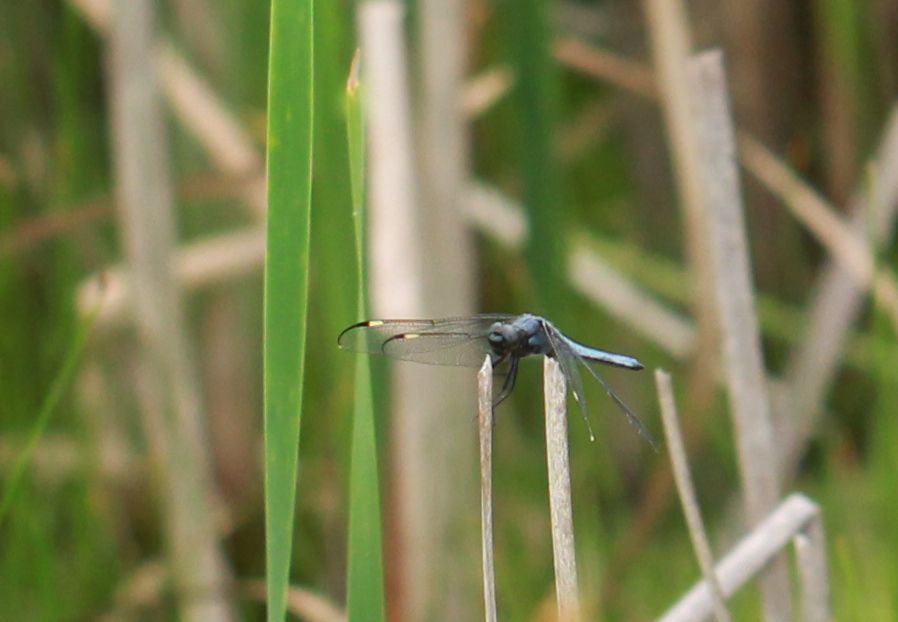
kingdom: Animalia
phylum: Arthropoda
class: Insecta
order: Odonata
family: Libellulidae
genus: Libellula
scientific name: Libellula cyanea
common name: Spangled skimmer
